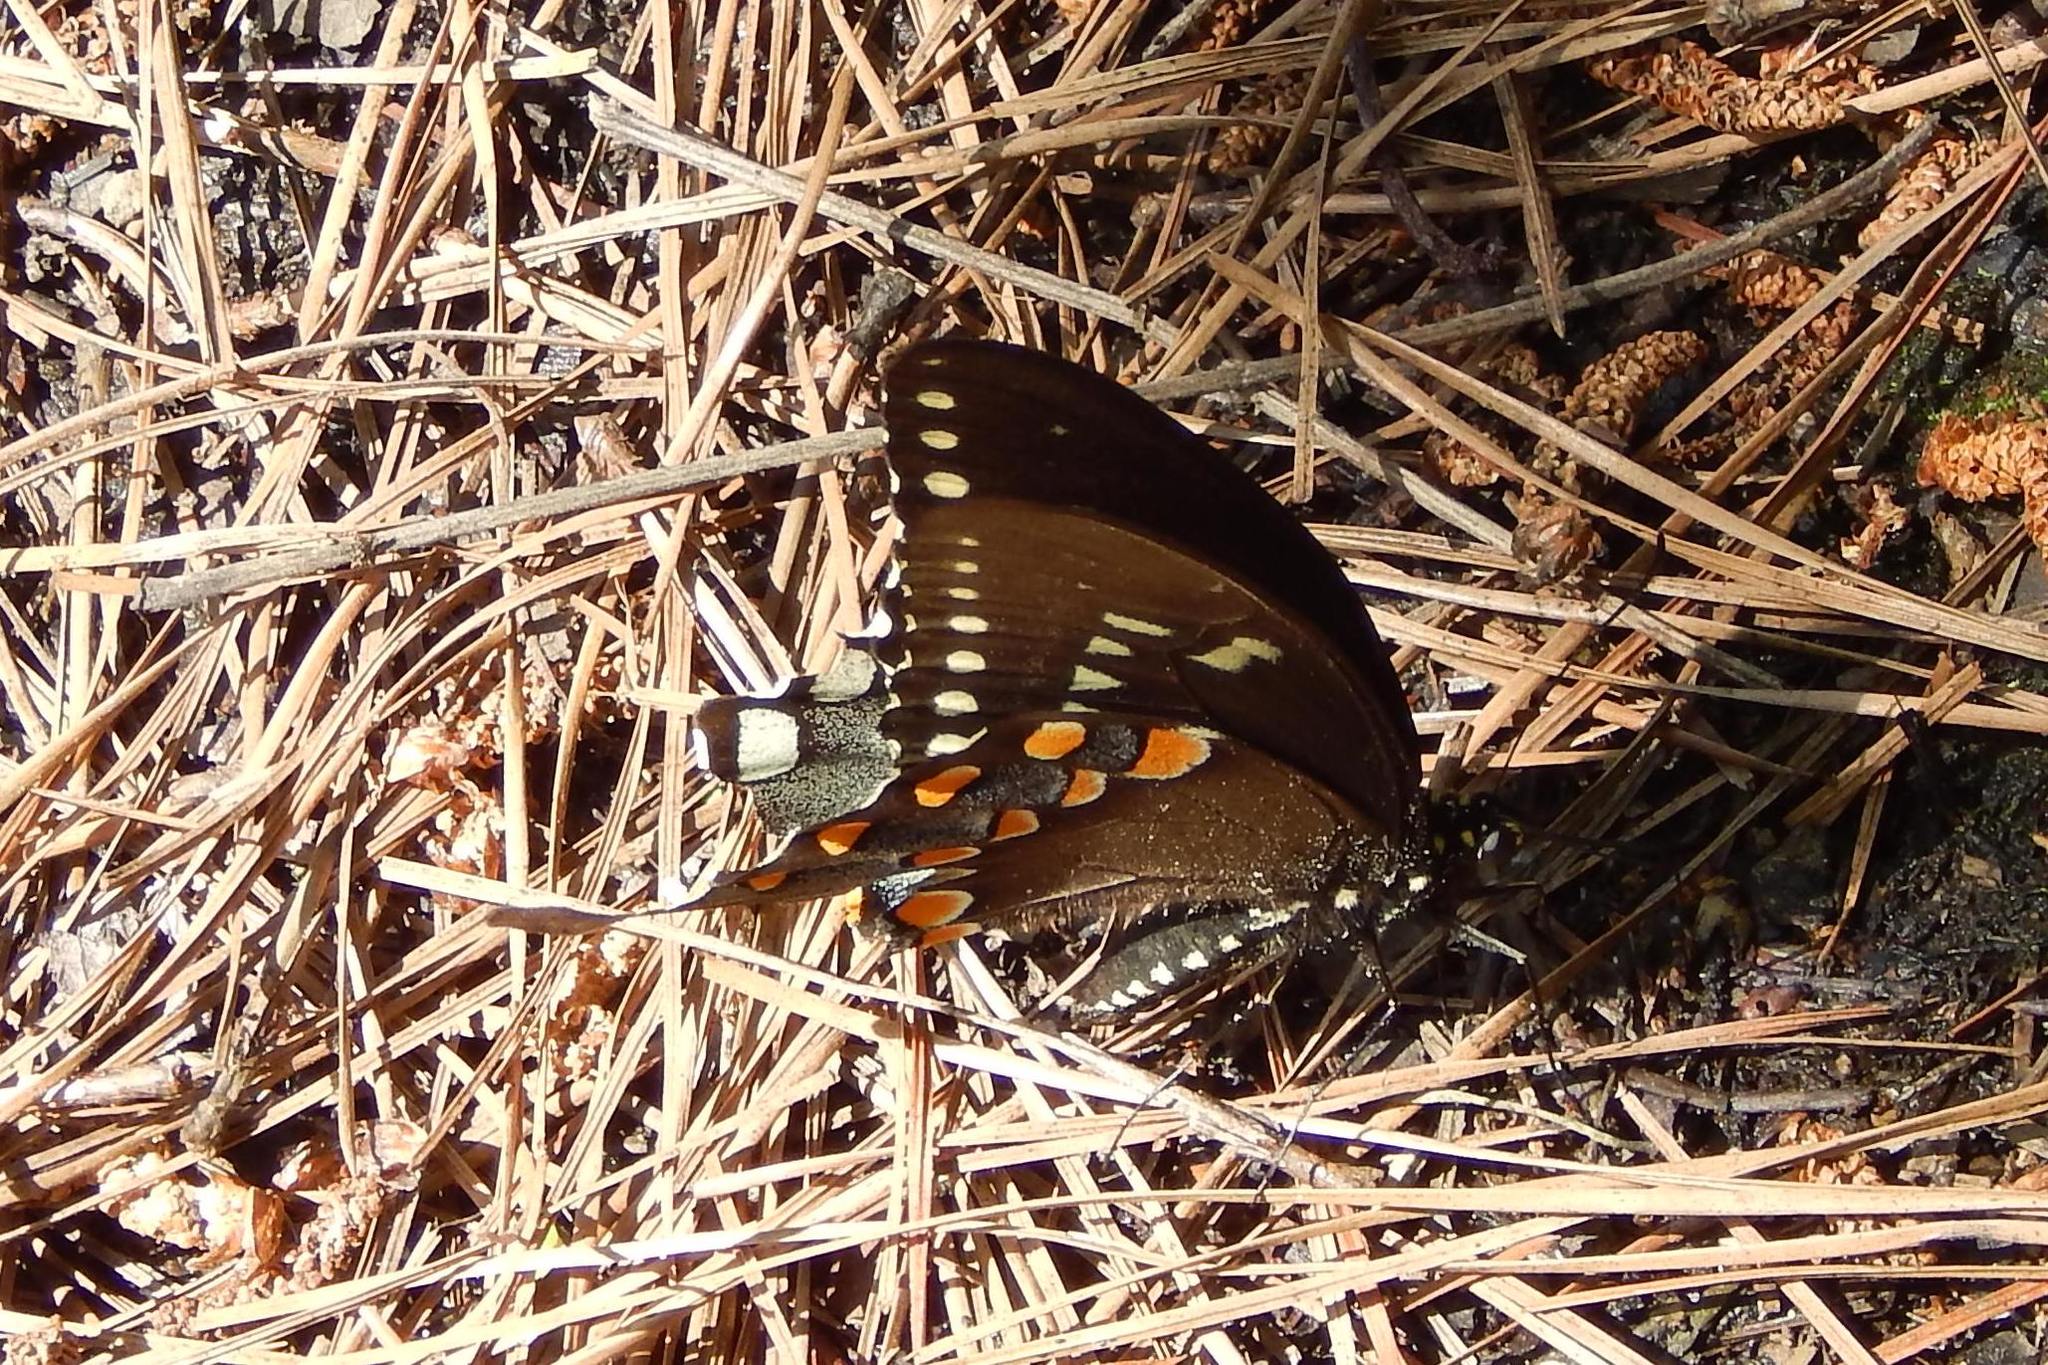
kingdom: Animalia
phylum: Arthropoda
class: Insecta
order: Lepidoptera
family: Papilionidae
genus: Papilio
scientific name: Papilio troilus
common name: Spicebush swallowtail
